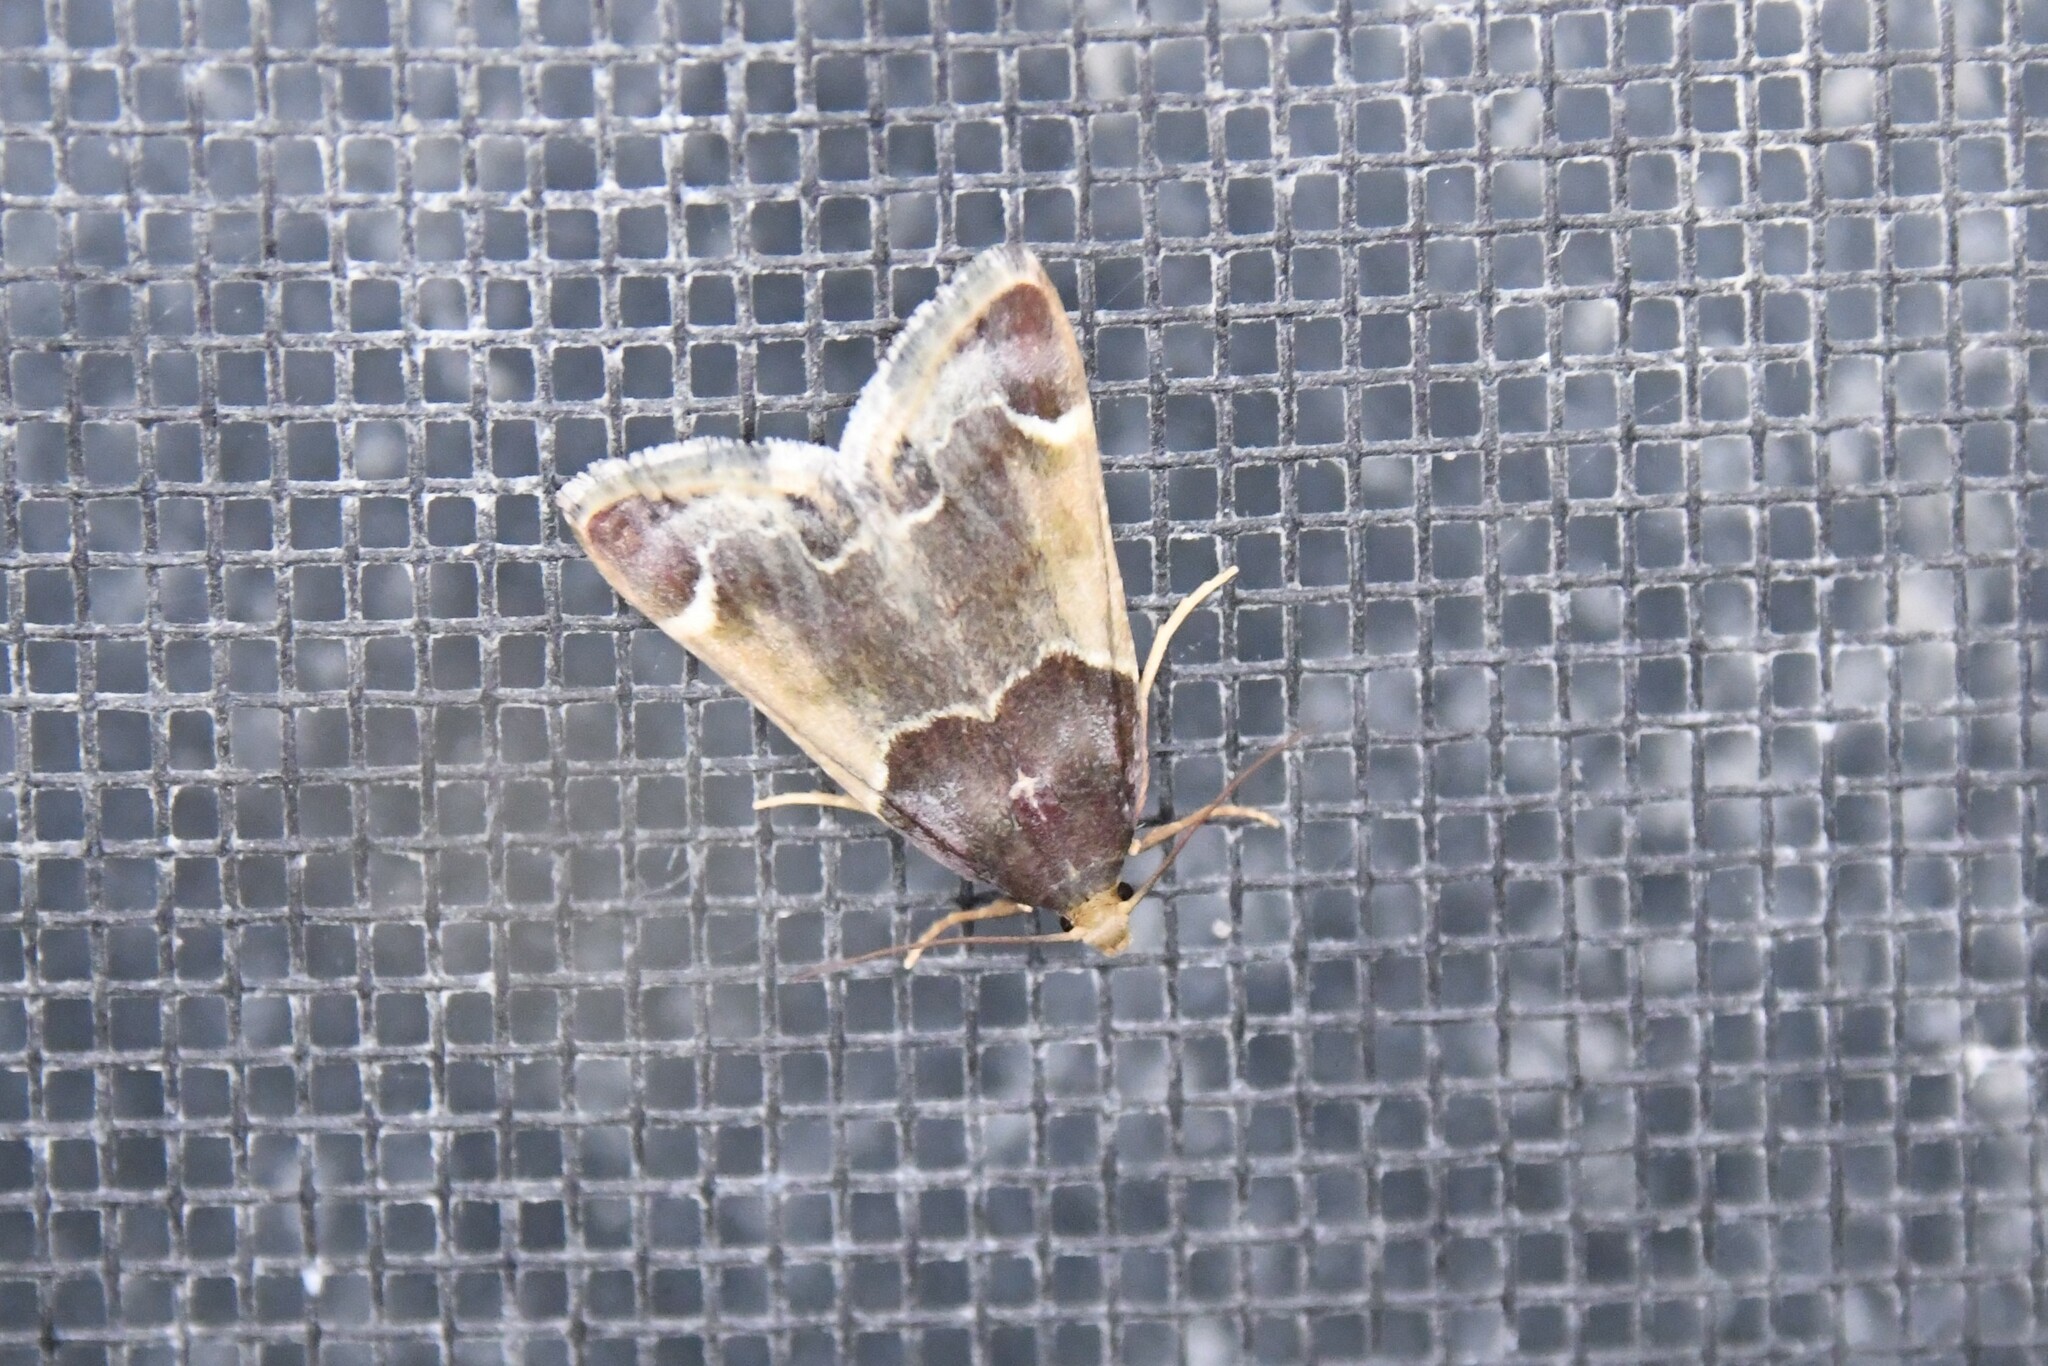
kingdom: Animalia
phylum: Arthropoda
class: Insecta
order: Lepidoptera
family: Pyralidae
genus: Pyralis
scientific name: Pyralis farinalis
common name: Meal moth
